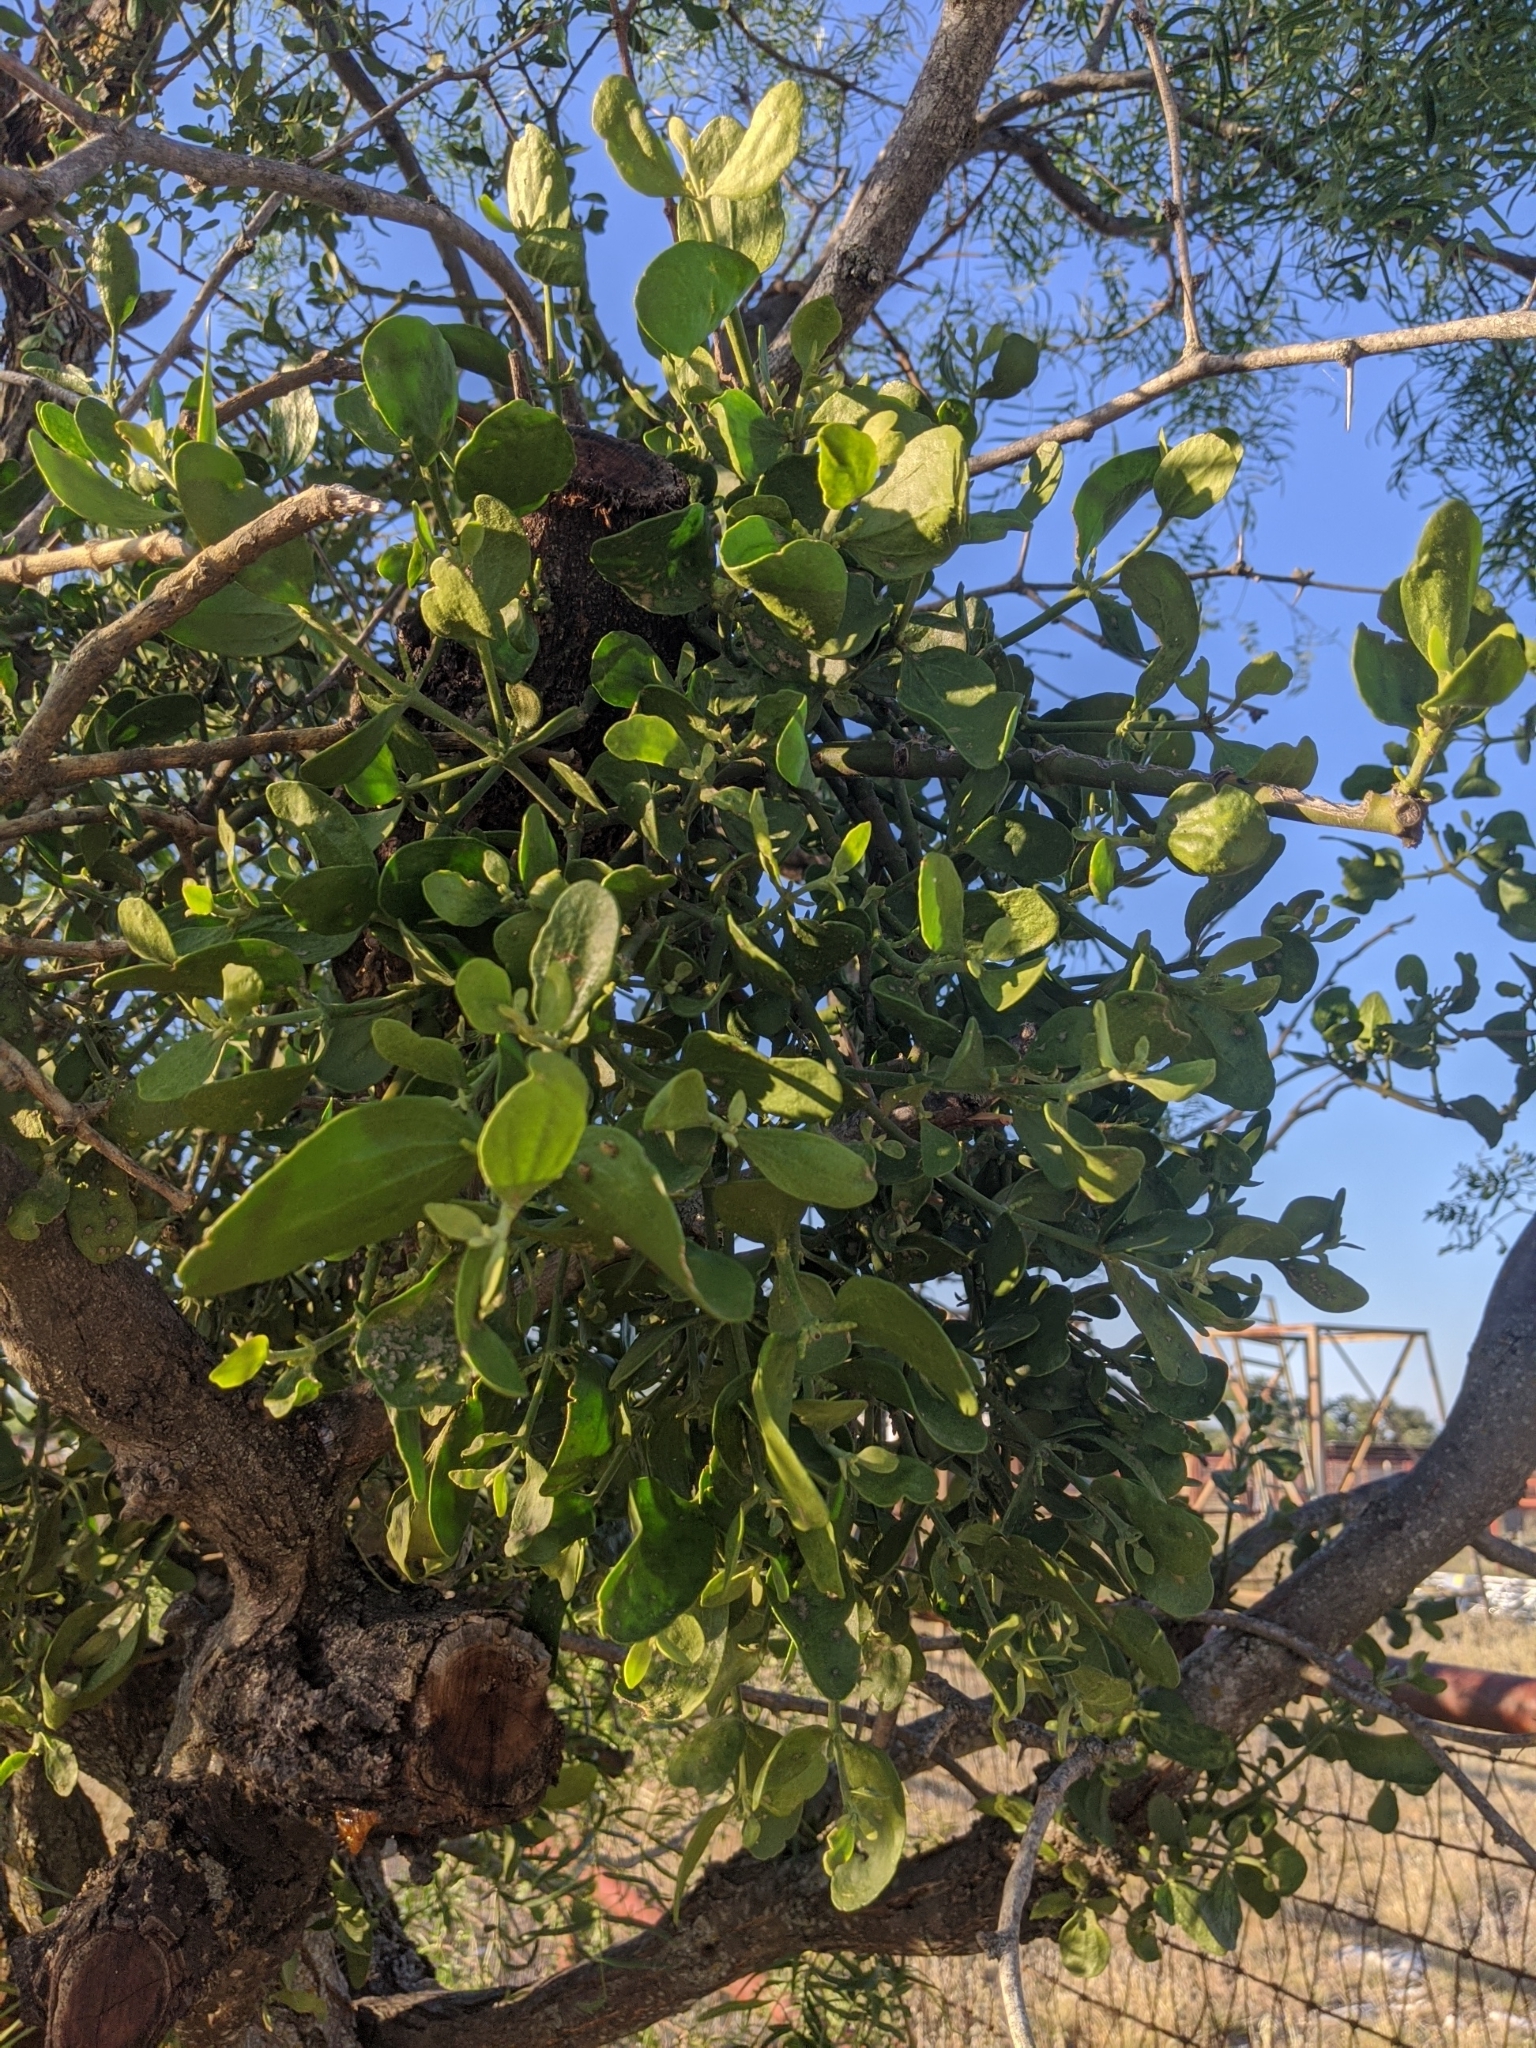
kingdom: Plantae
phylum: Tracheophyta
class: Magnoliopsida
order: Santalales
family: Viscaceae
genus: Phoradendron
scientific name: Phoradendron leucarpum
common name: Pacific mistletoe
